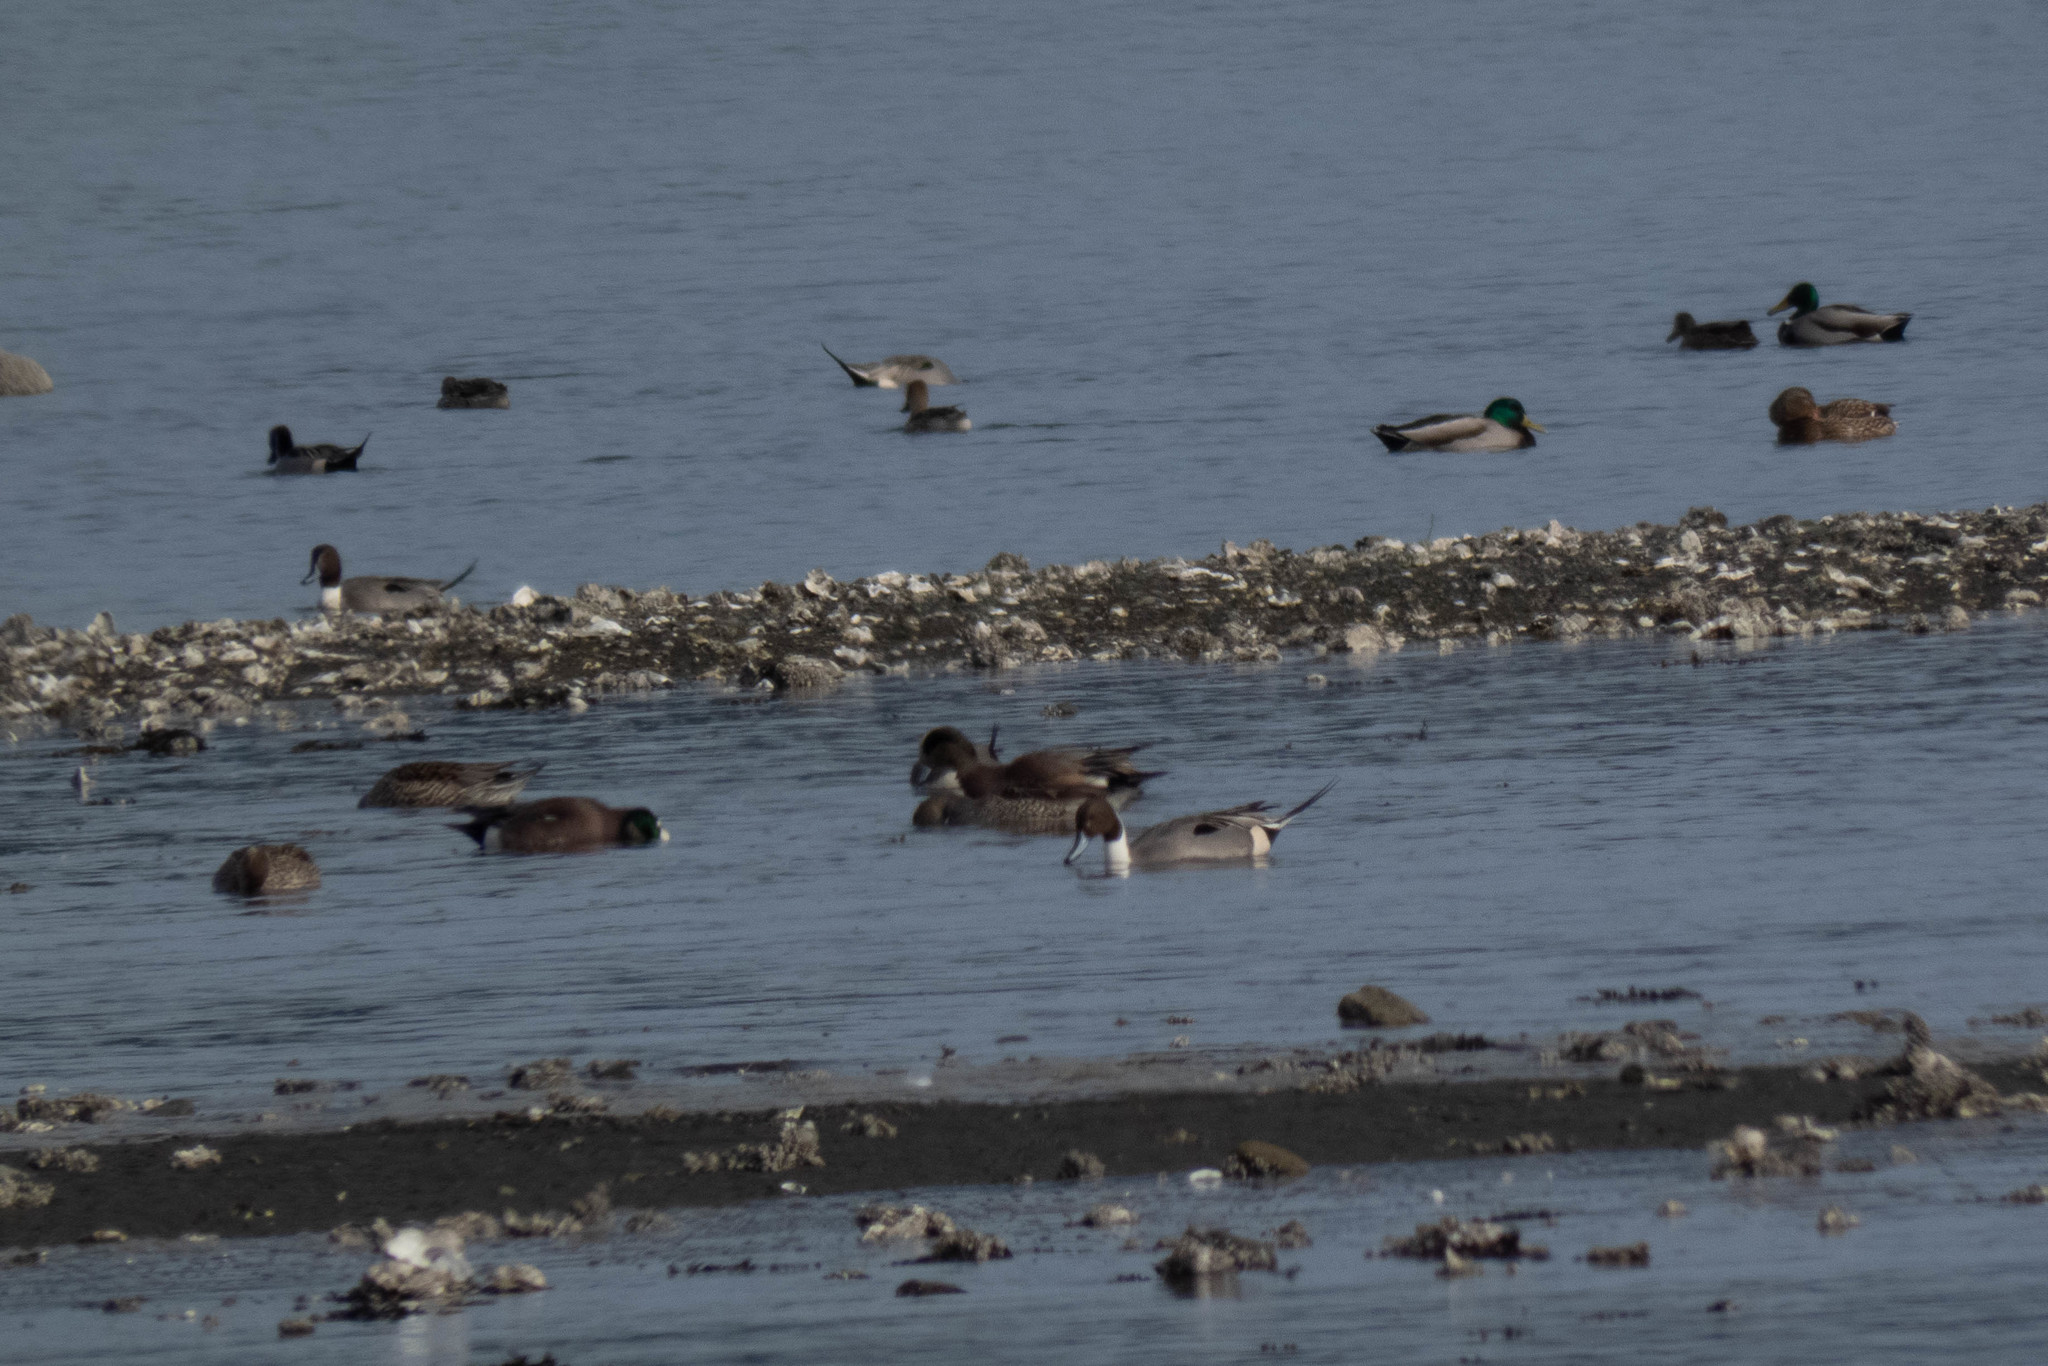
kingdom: Animalia
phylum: Chordata
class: Aves
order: Anseriformes
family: Anatidae
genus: Anas
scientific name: Anas acuta
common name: Northern pintail
